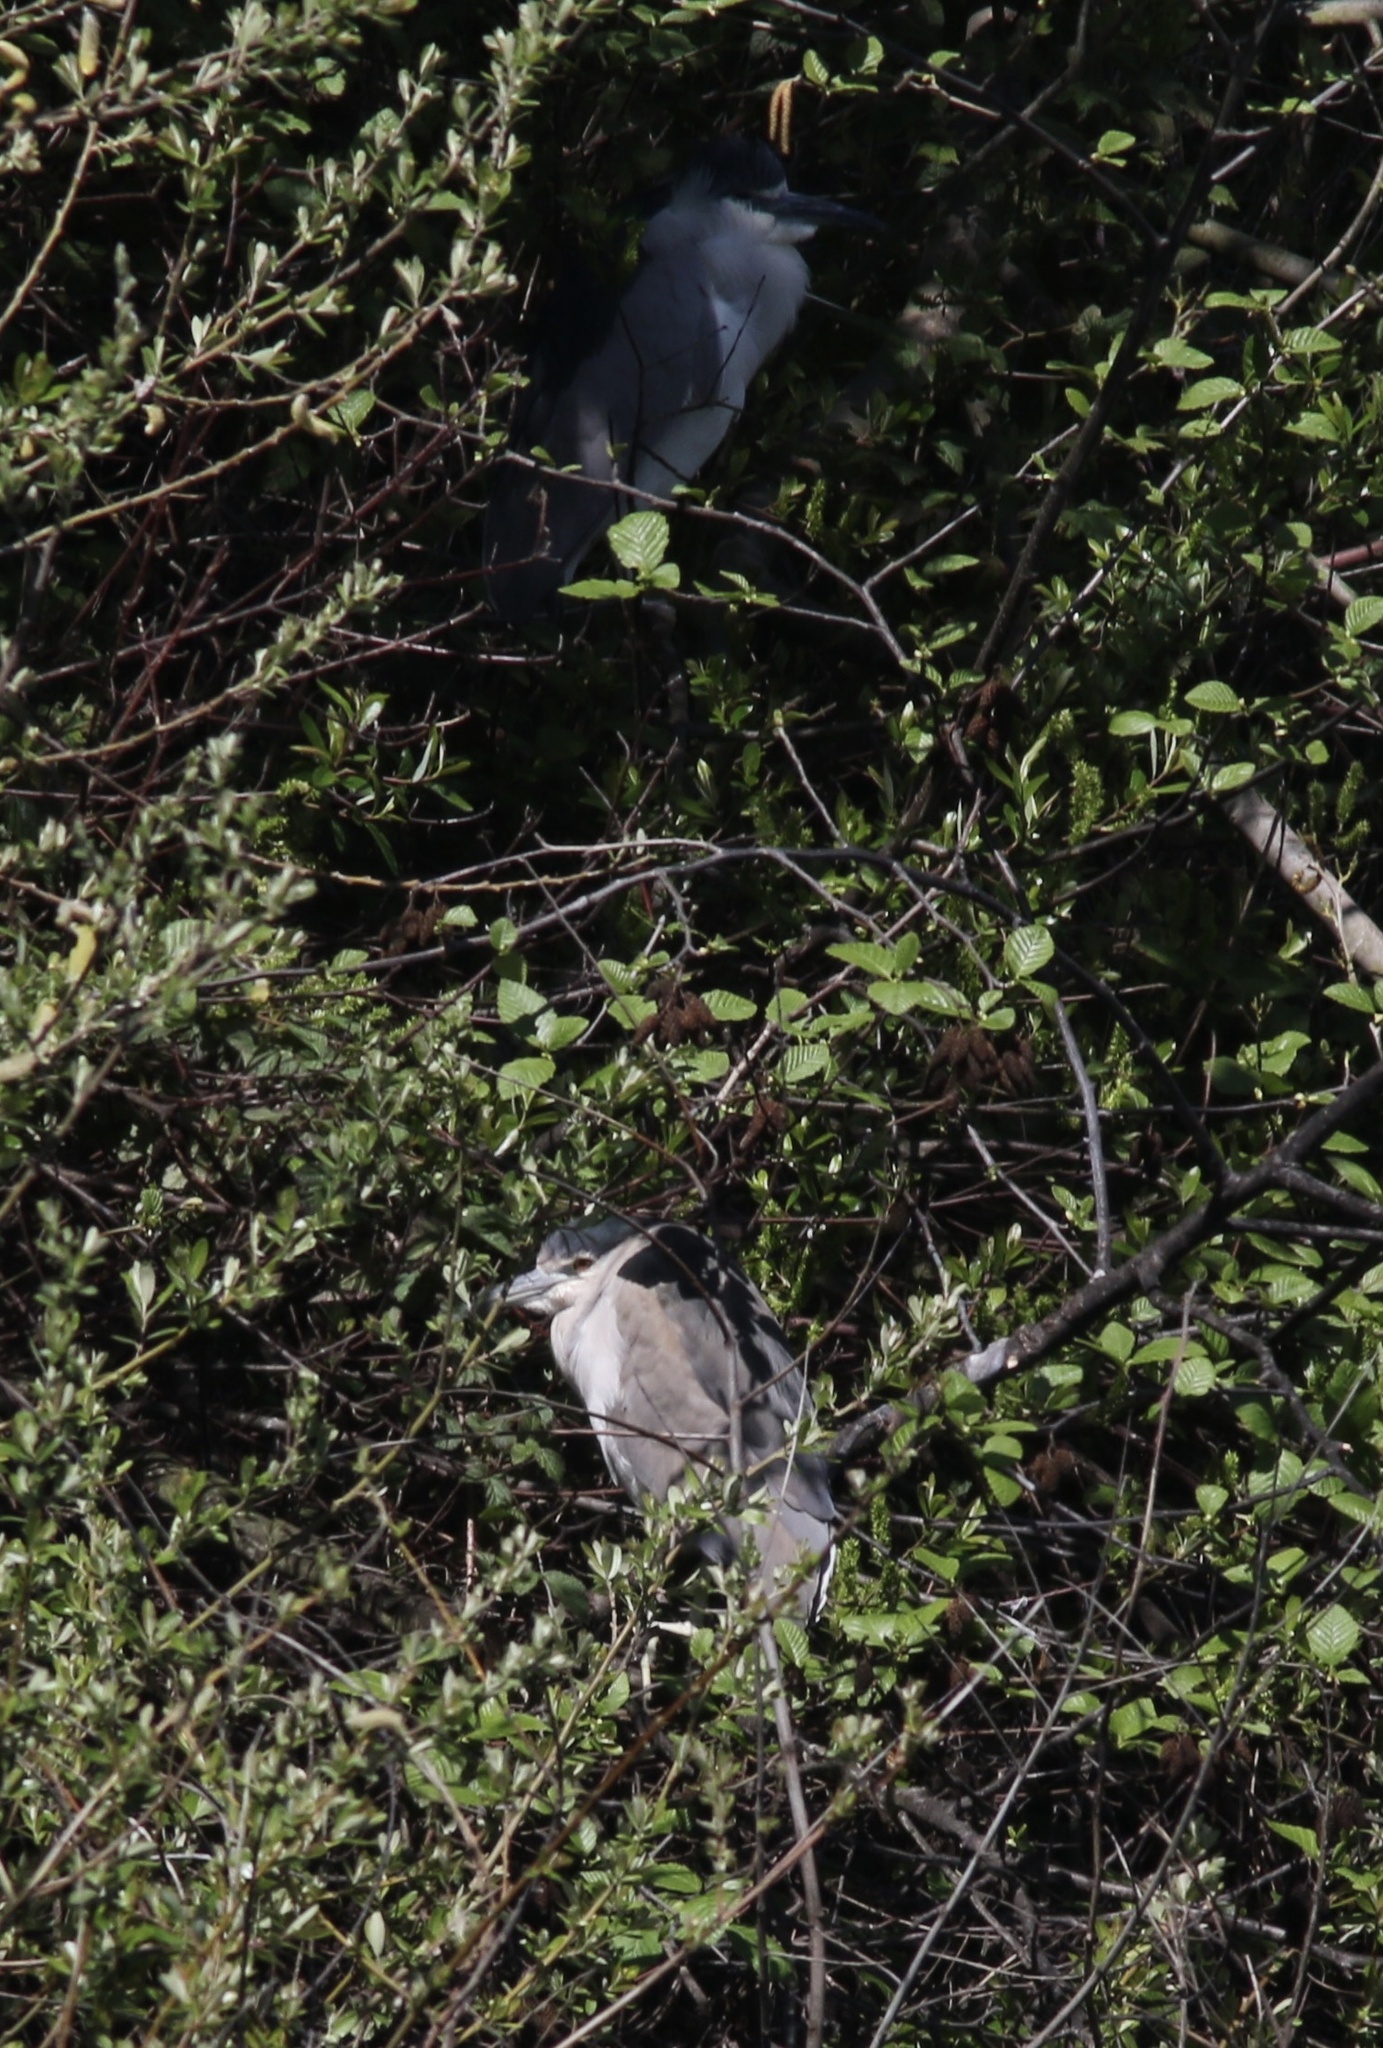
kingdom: Animalia
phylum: Chordata
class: Aves
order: Pelecaniformes
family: Ardeidae
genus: Nycticorax
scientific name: Nycticorax nycticorax
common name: Black-crowned night heron
